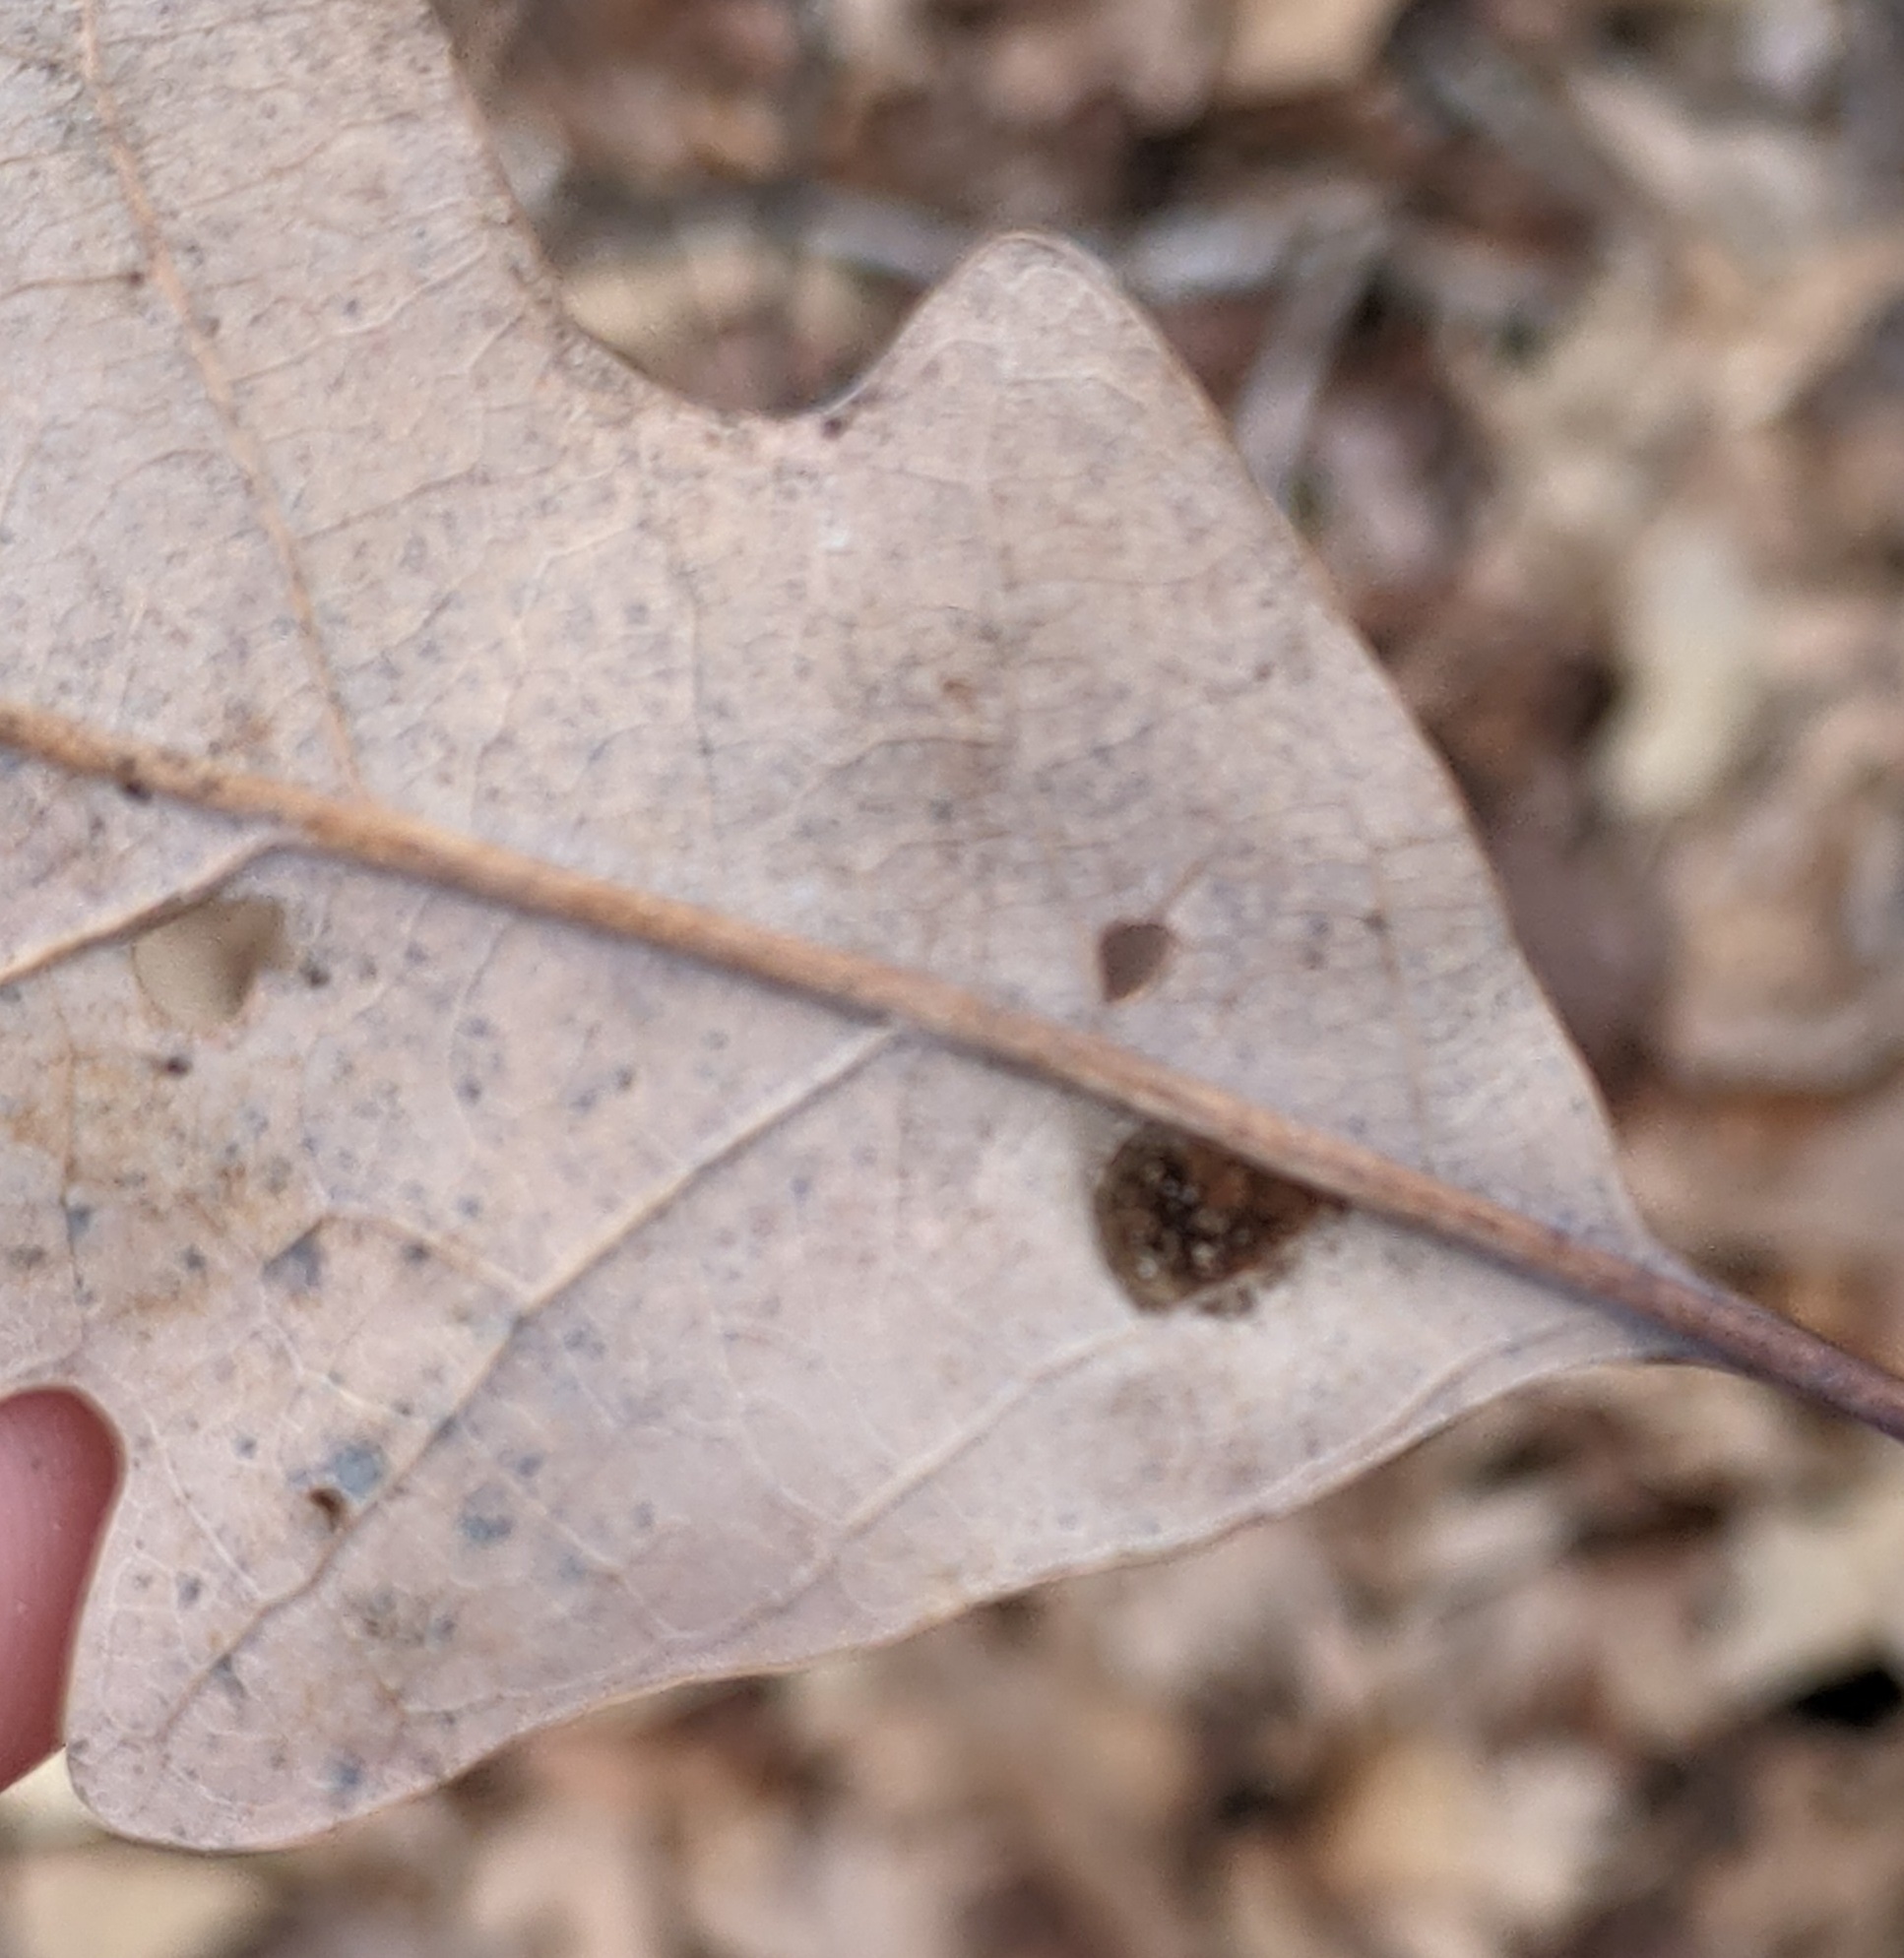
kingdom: Animalia
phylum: Arthropoda
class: Arachnida
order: Trombidiformes
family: Eriophyidae
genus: Aceria
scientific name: Aceria
